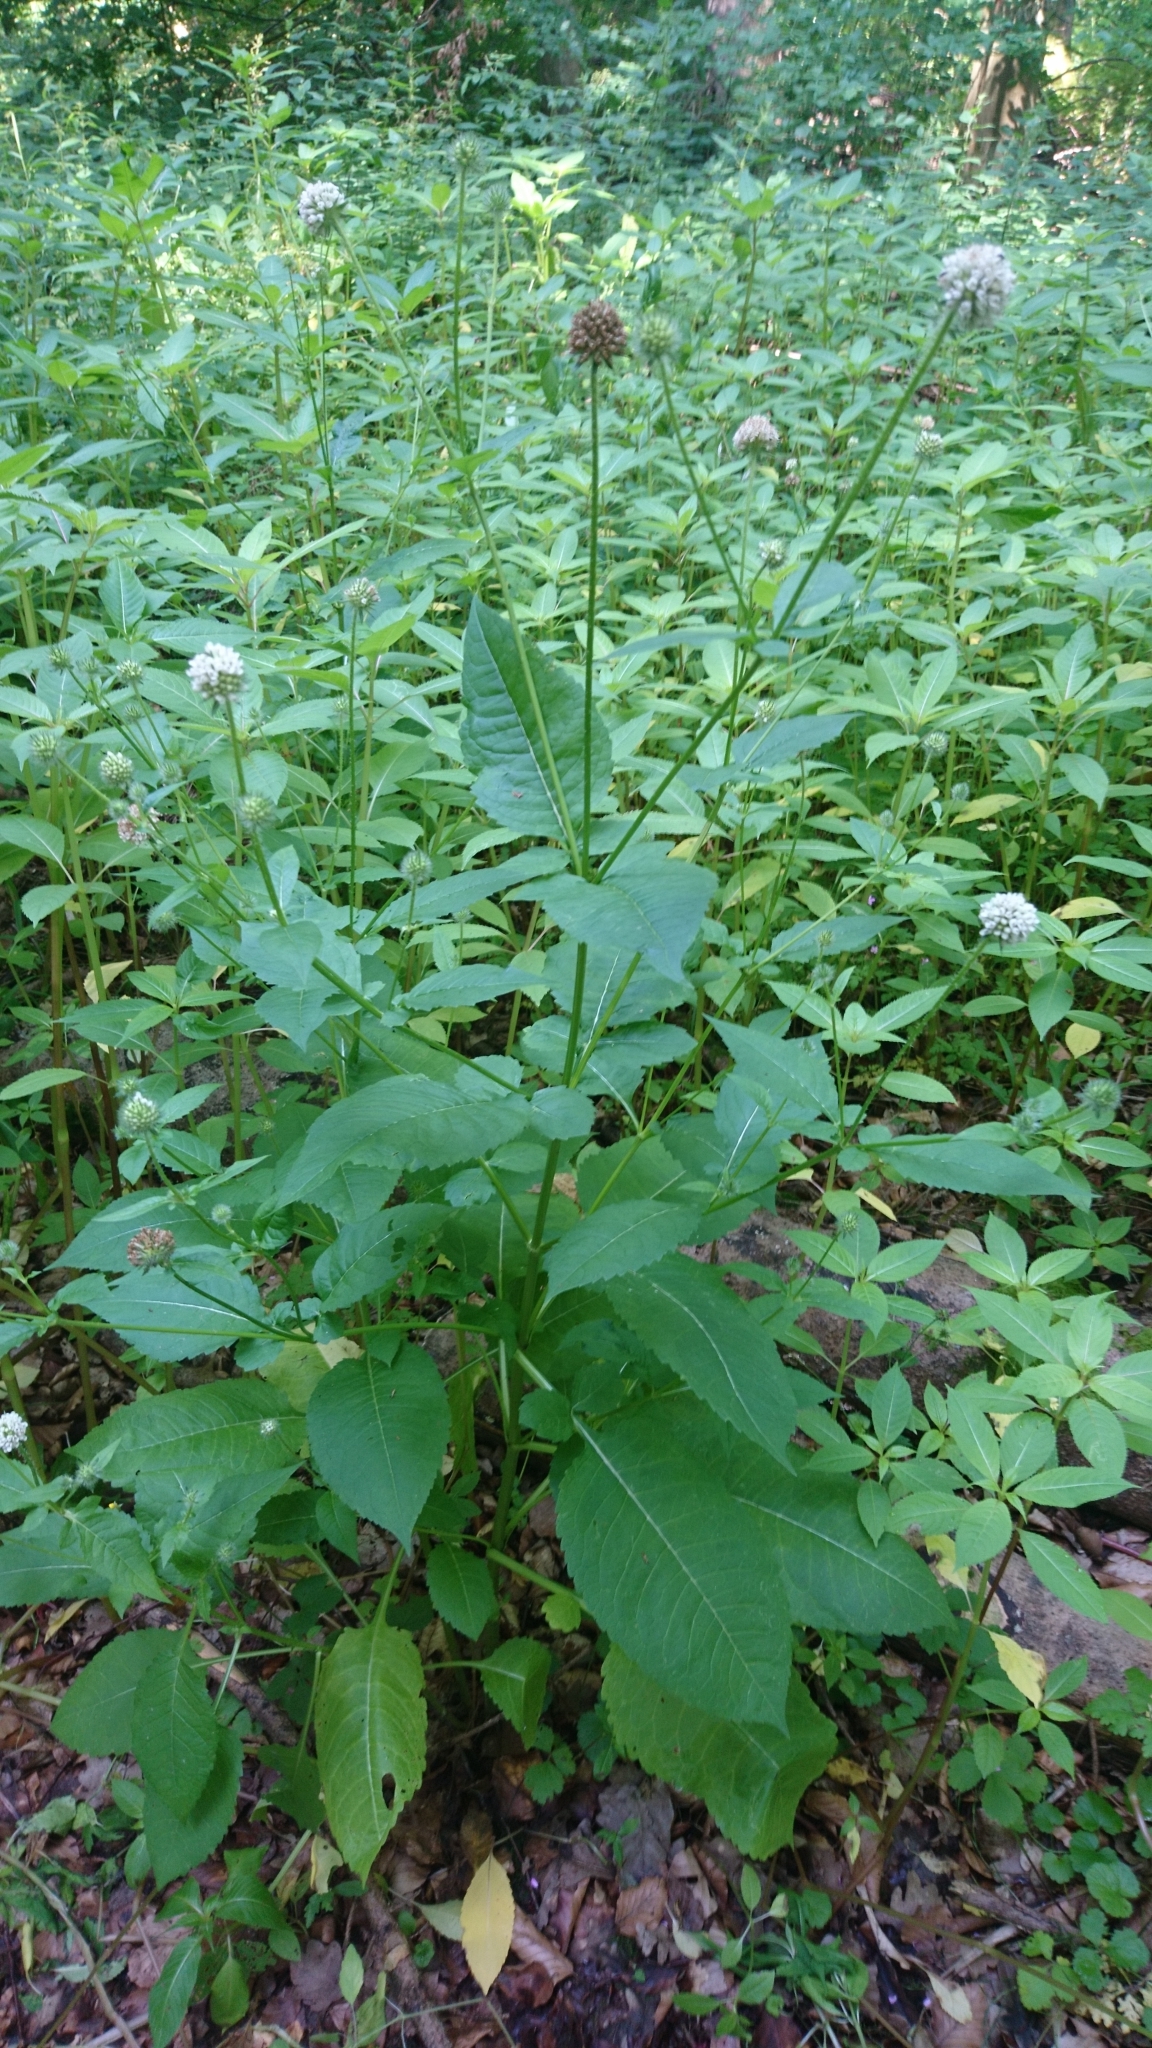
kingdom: Plantae
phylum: Tracheophyta
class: Magnoliopsida
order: Dipsacales
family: Caprifoliaceae
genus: Dipsacus
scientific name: Dipsacus pilosus
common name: Small teasel
